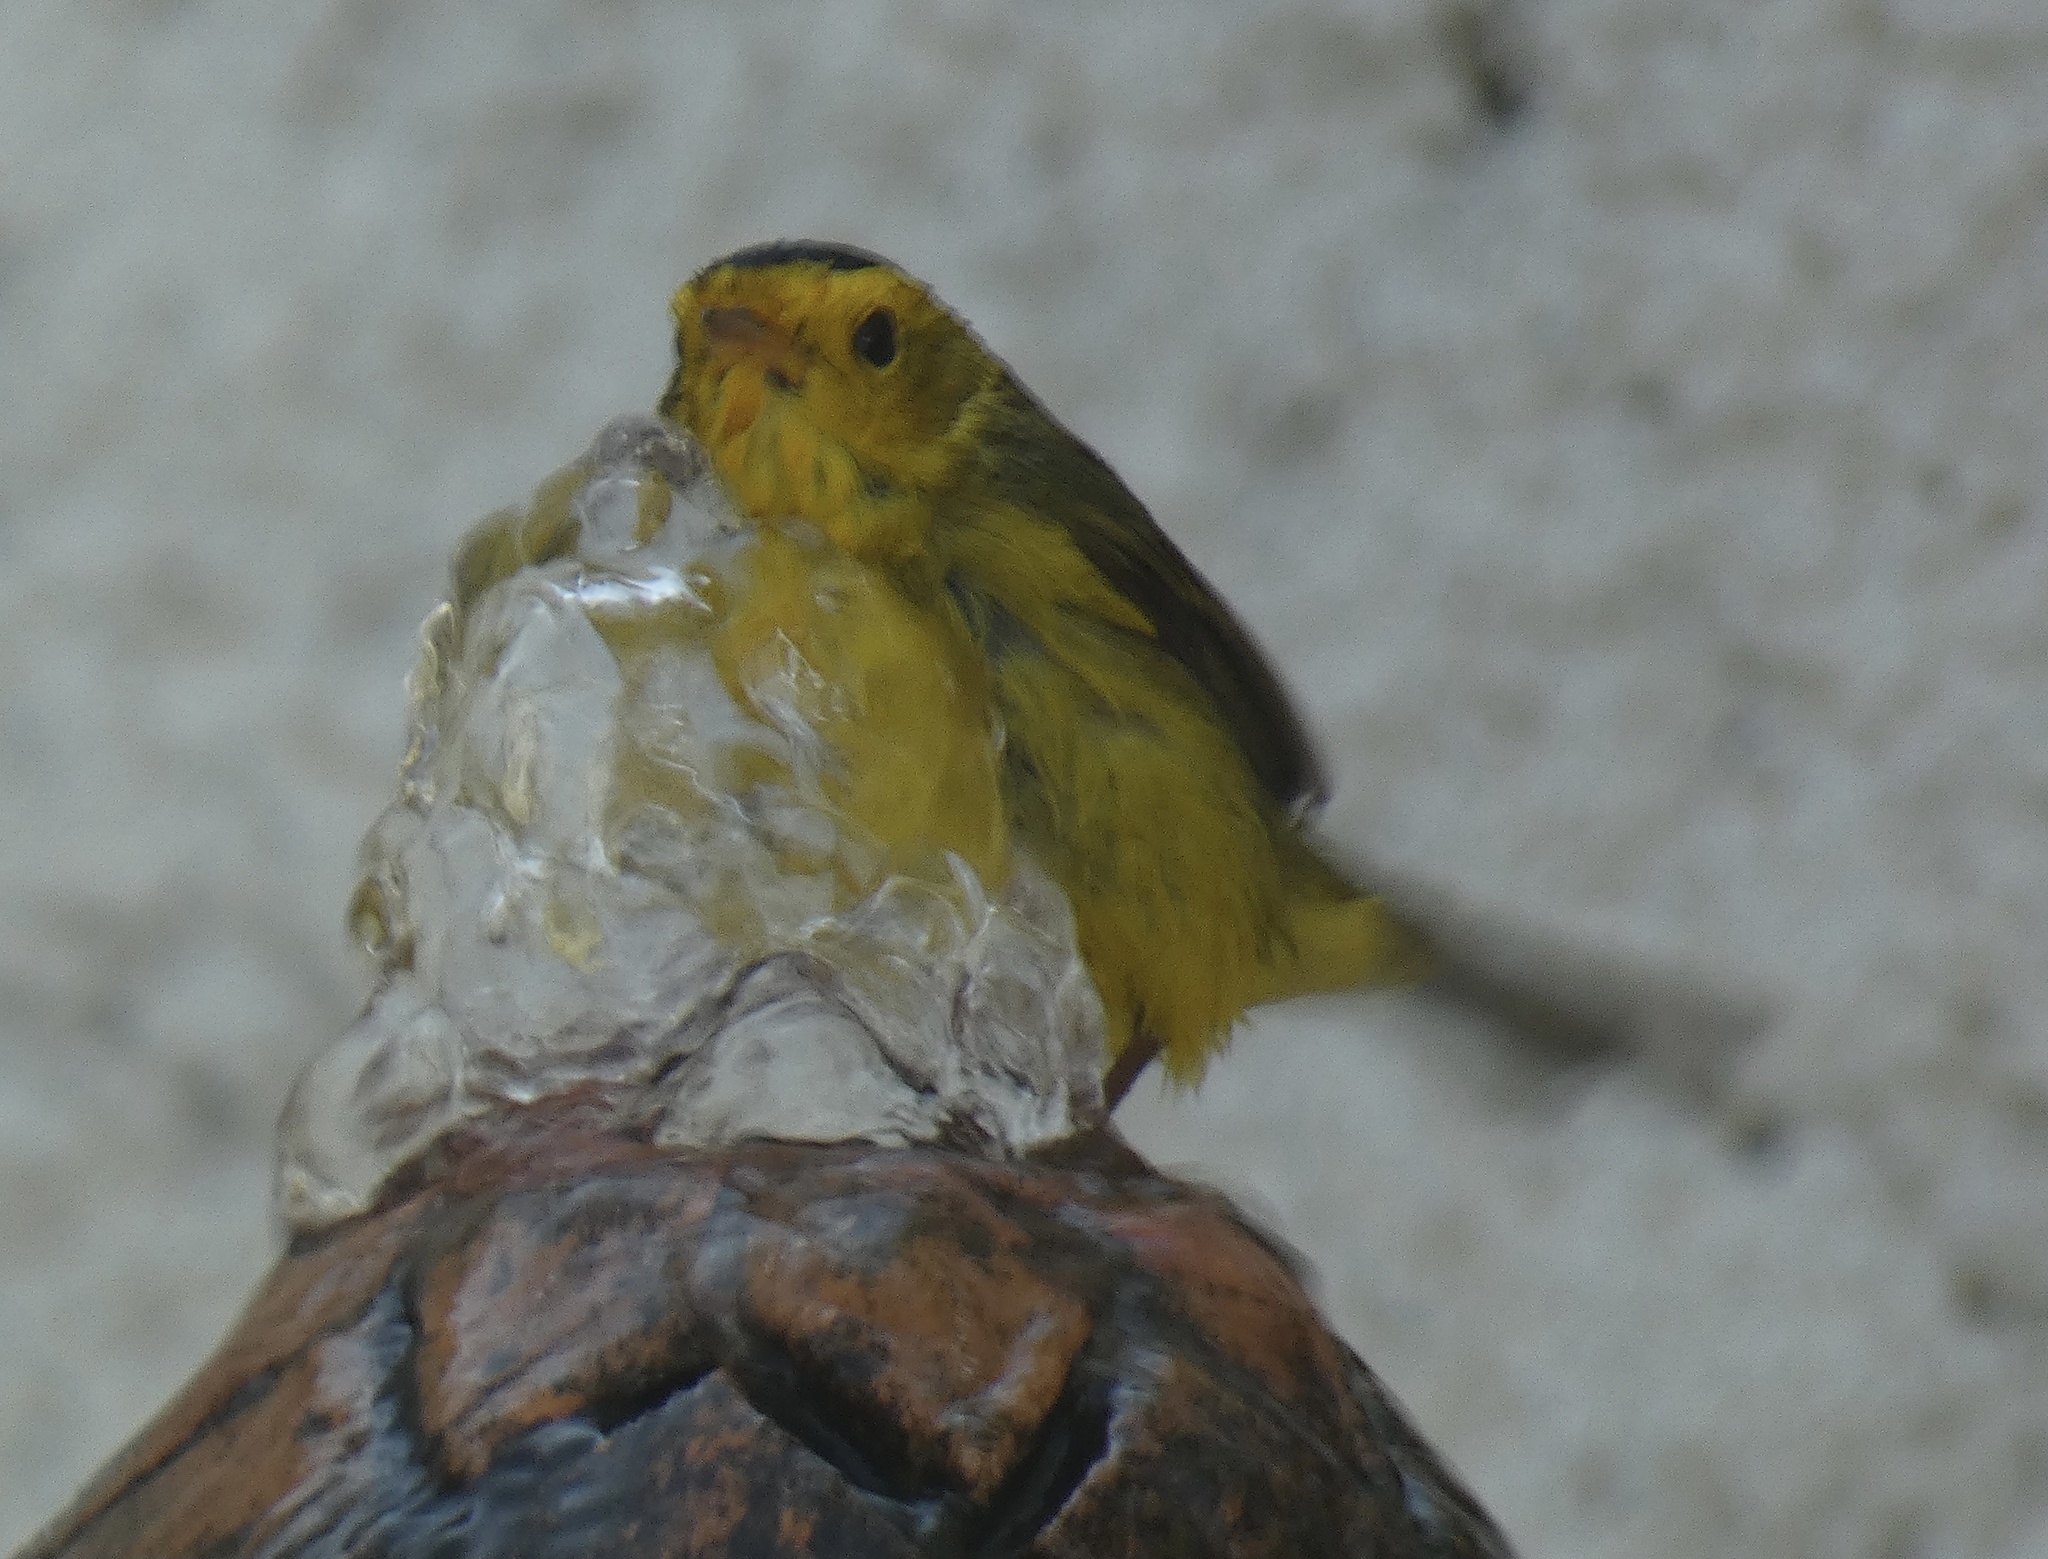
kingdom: Animalia
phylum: Chordata
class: Aves
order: Passeriformes
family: Parulidae
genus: Cardellina
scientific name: Cardellina pusilla
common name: Wilson's warbler
